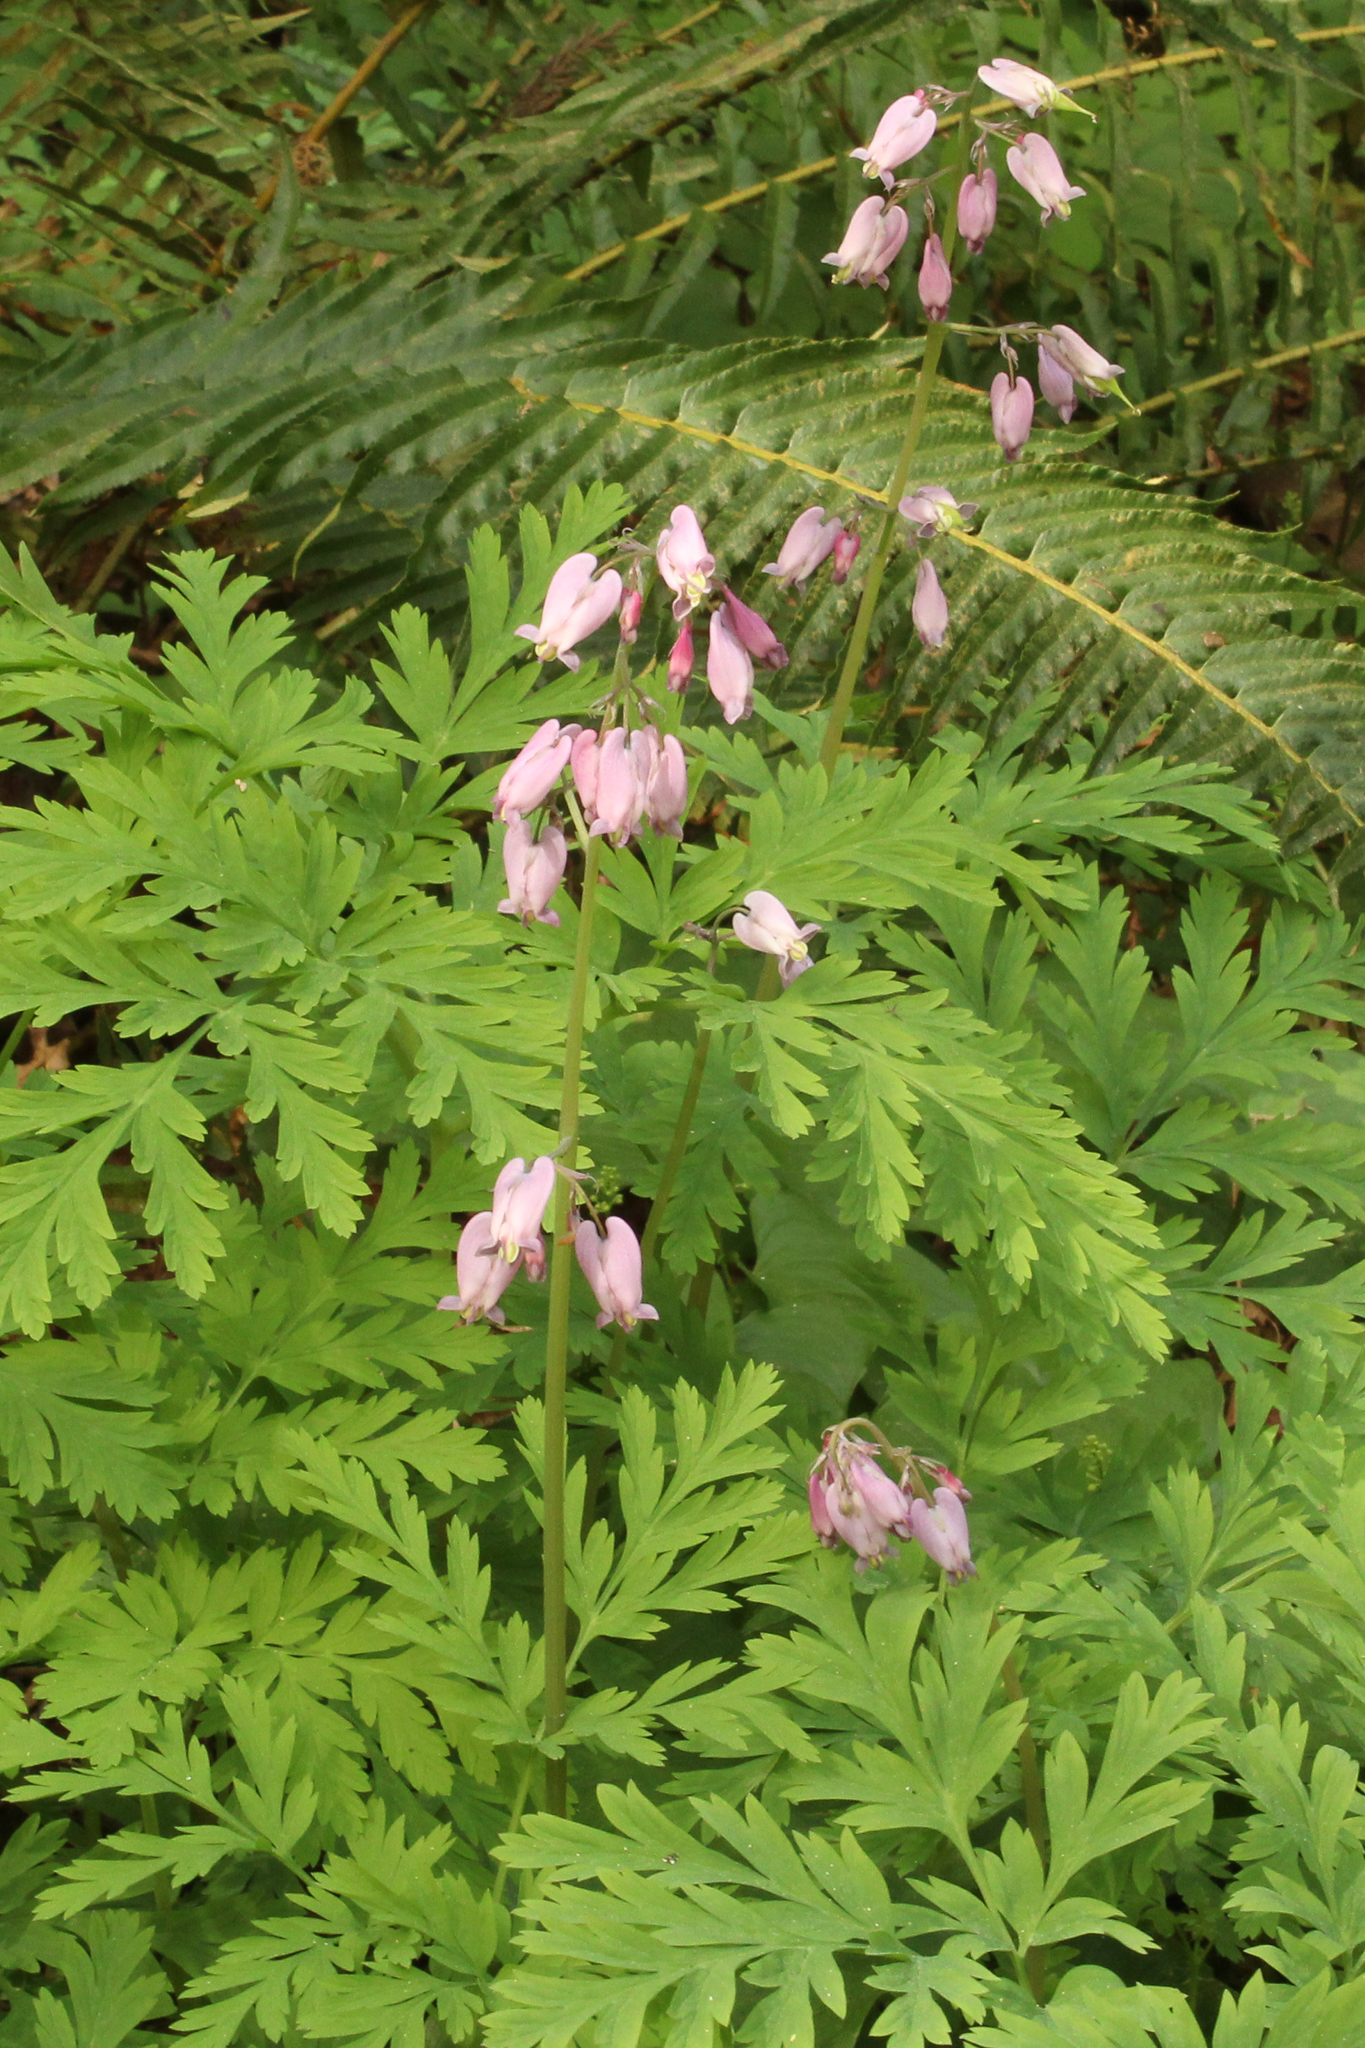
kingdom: Plantae
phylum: Tracheophyta
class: Magnoliopsida
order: Ranunculales
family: Papaveraceae
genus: Dicentra
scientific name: Dicentra formosa
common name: Bleeding-heart
